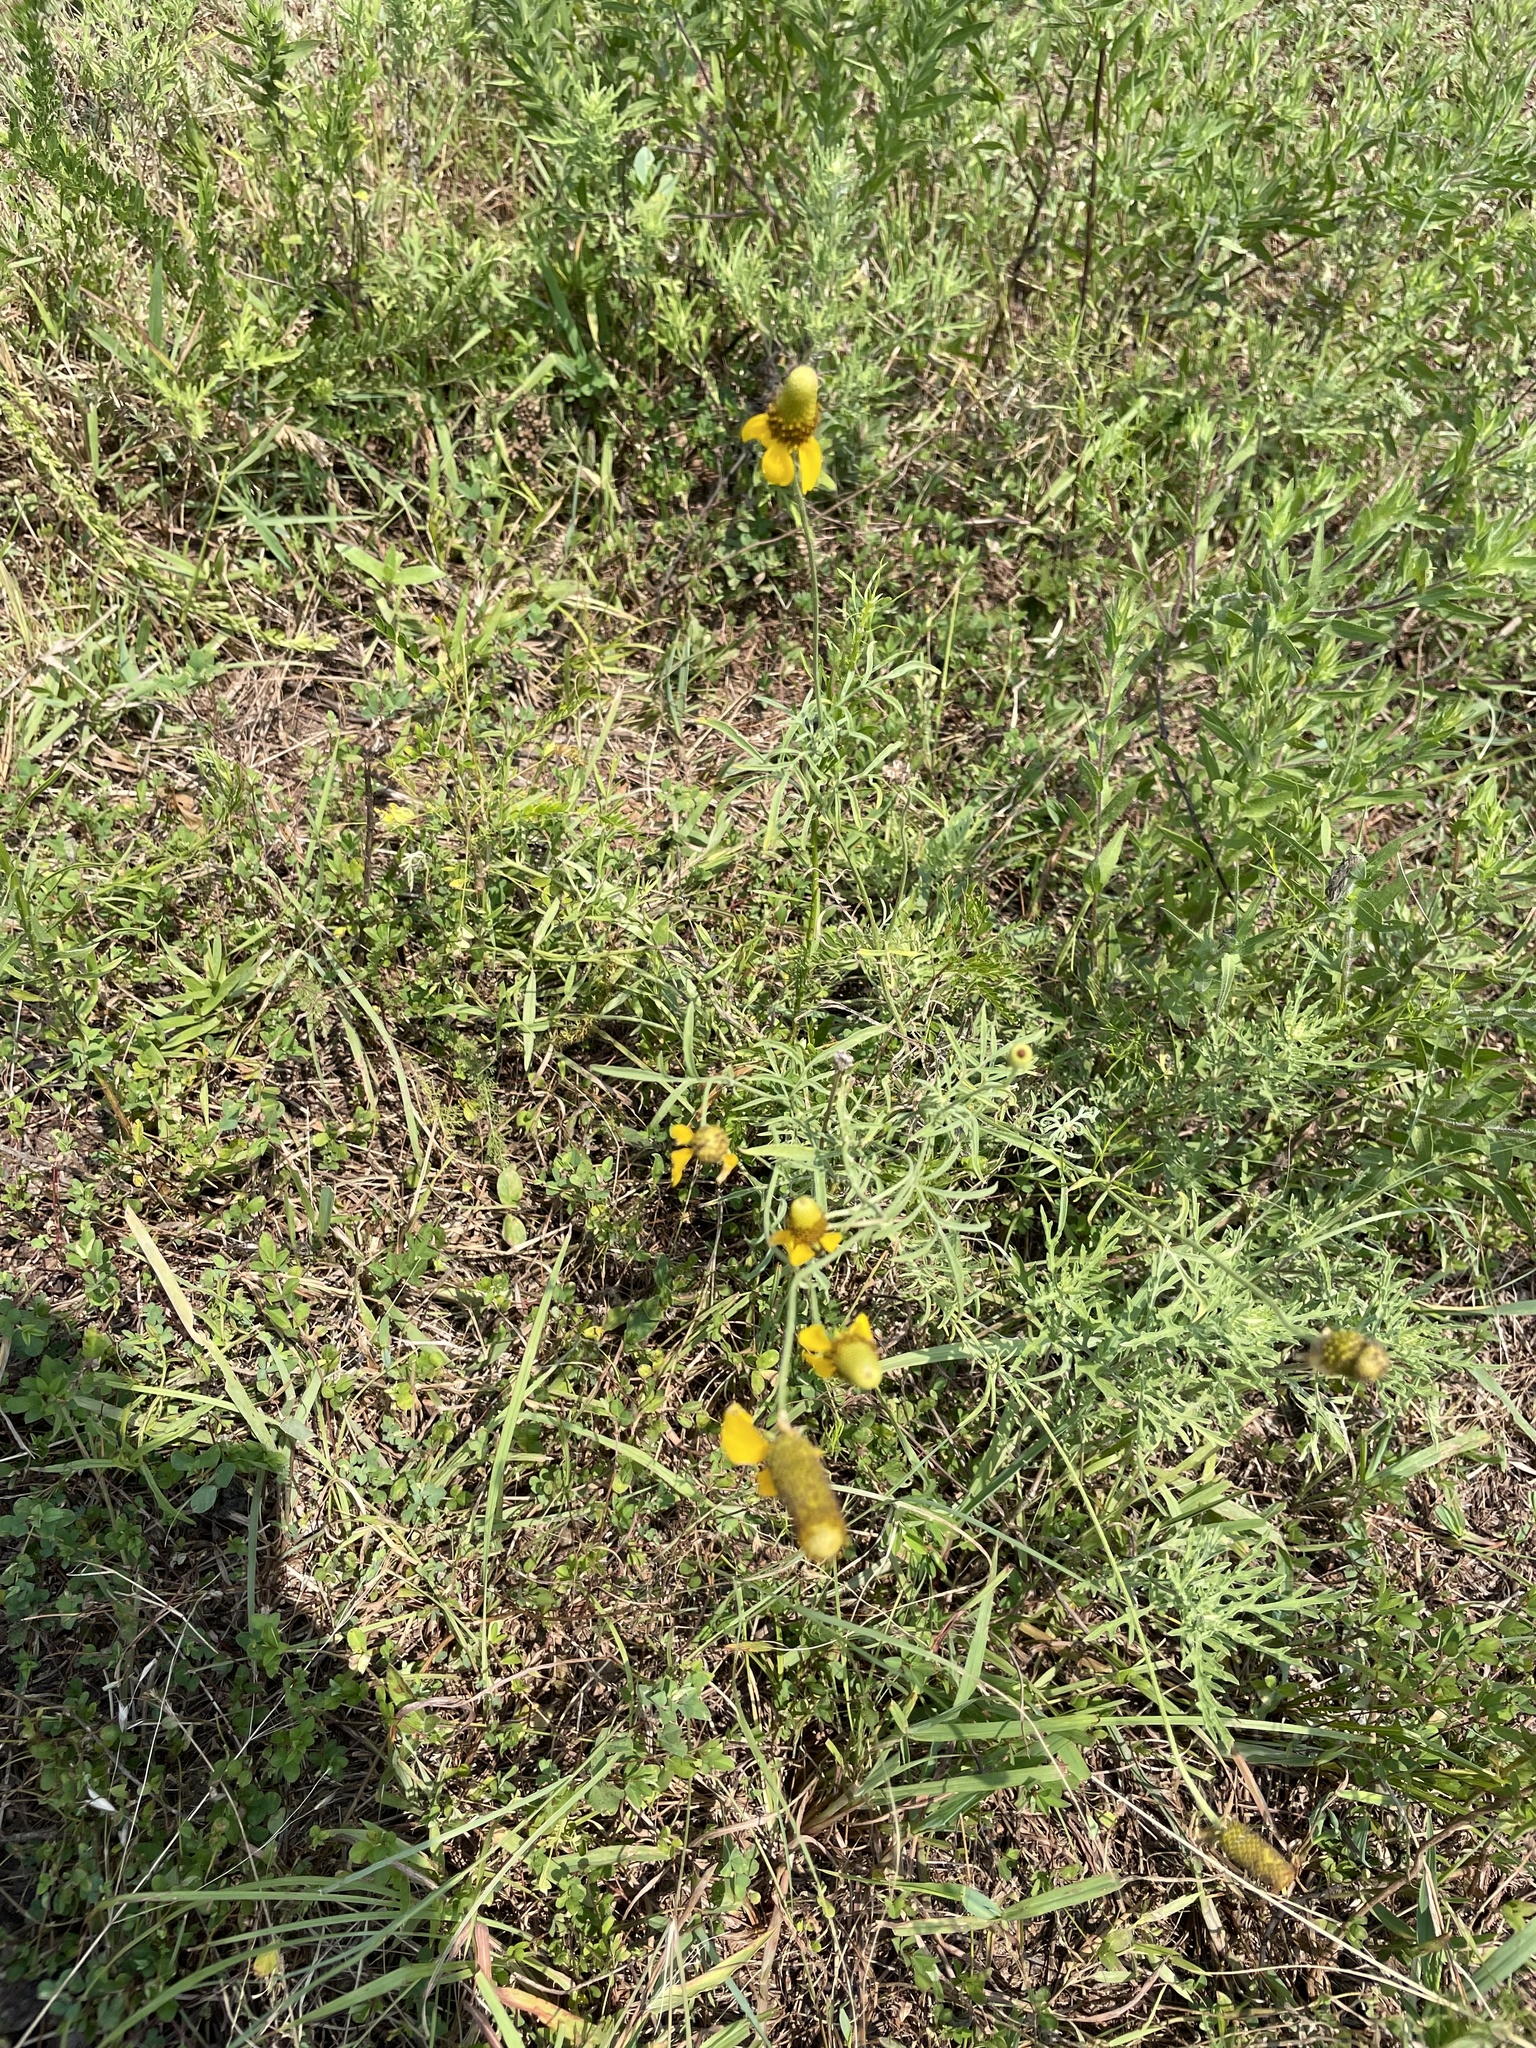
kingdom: Plantae
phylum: Tracheophyta
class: Magnoliopsida
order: Asterales
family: Asteraceae
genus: Ratibida
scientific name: Ratibida columnifera
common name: Prairie coneflower
